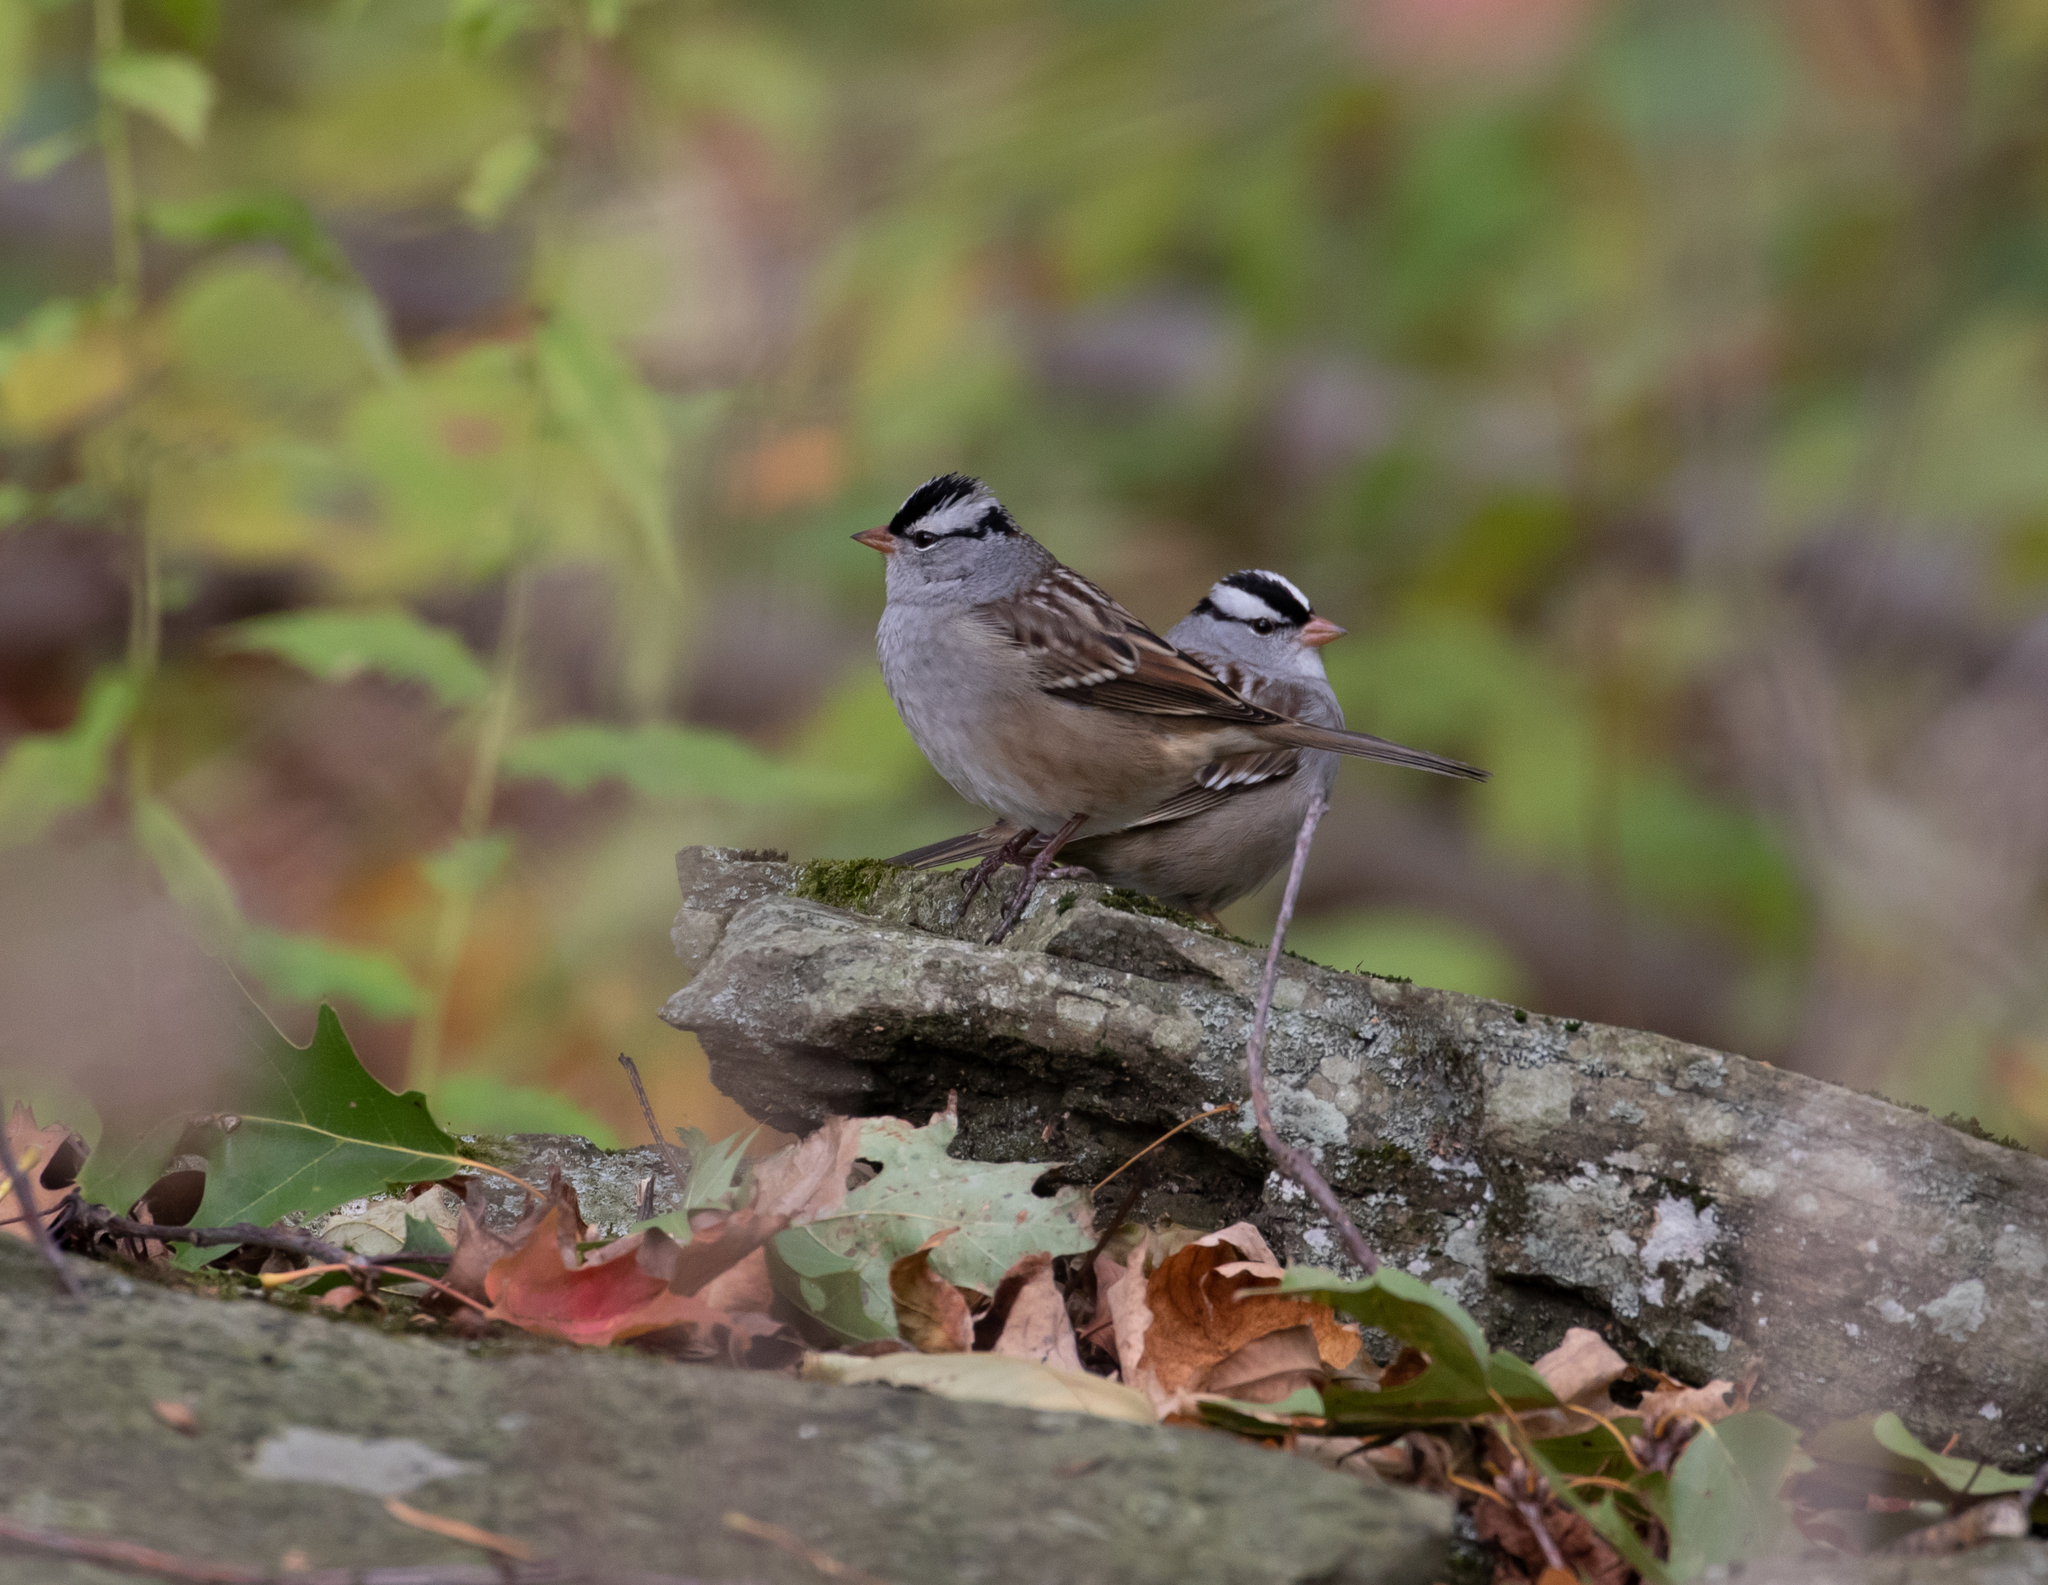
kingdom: Animalia
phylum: Chordata
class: Aves
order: Passeriformes
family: Passerellidae
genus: Zonotrichia
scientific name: Zonotrichia leucophrys
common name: White-crowned sparrow
